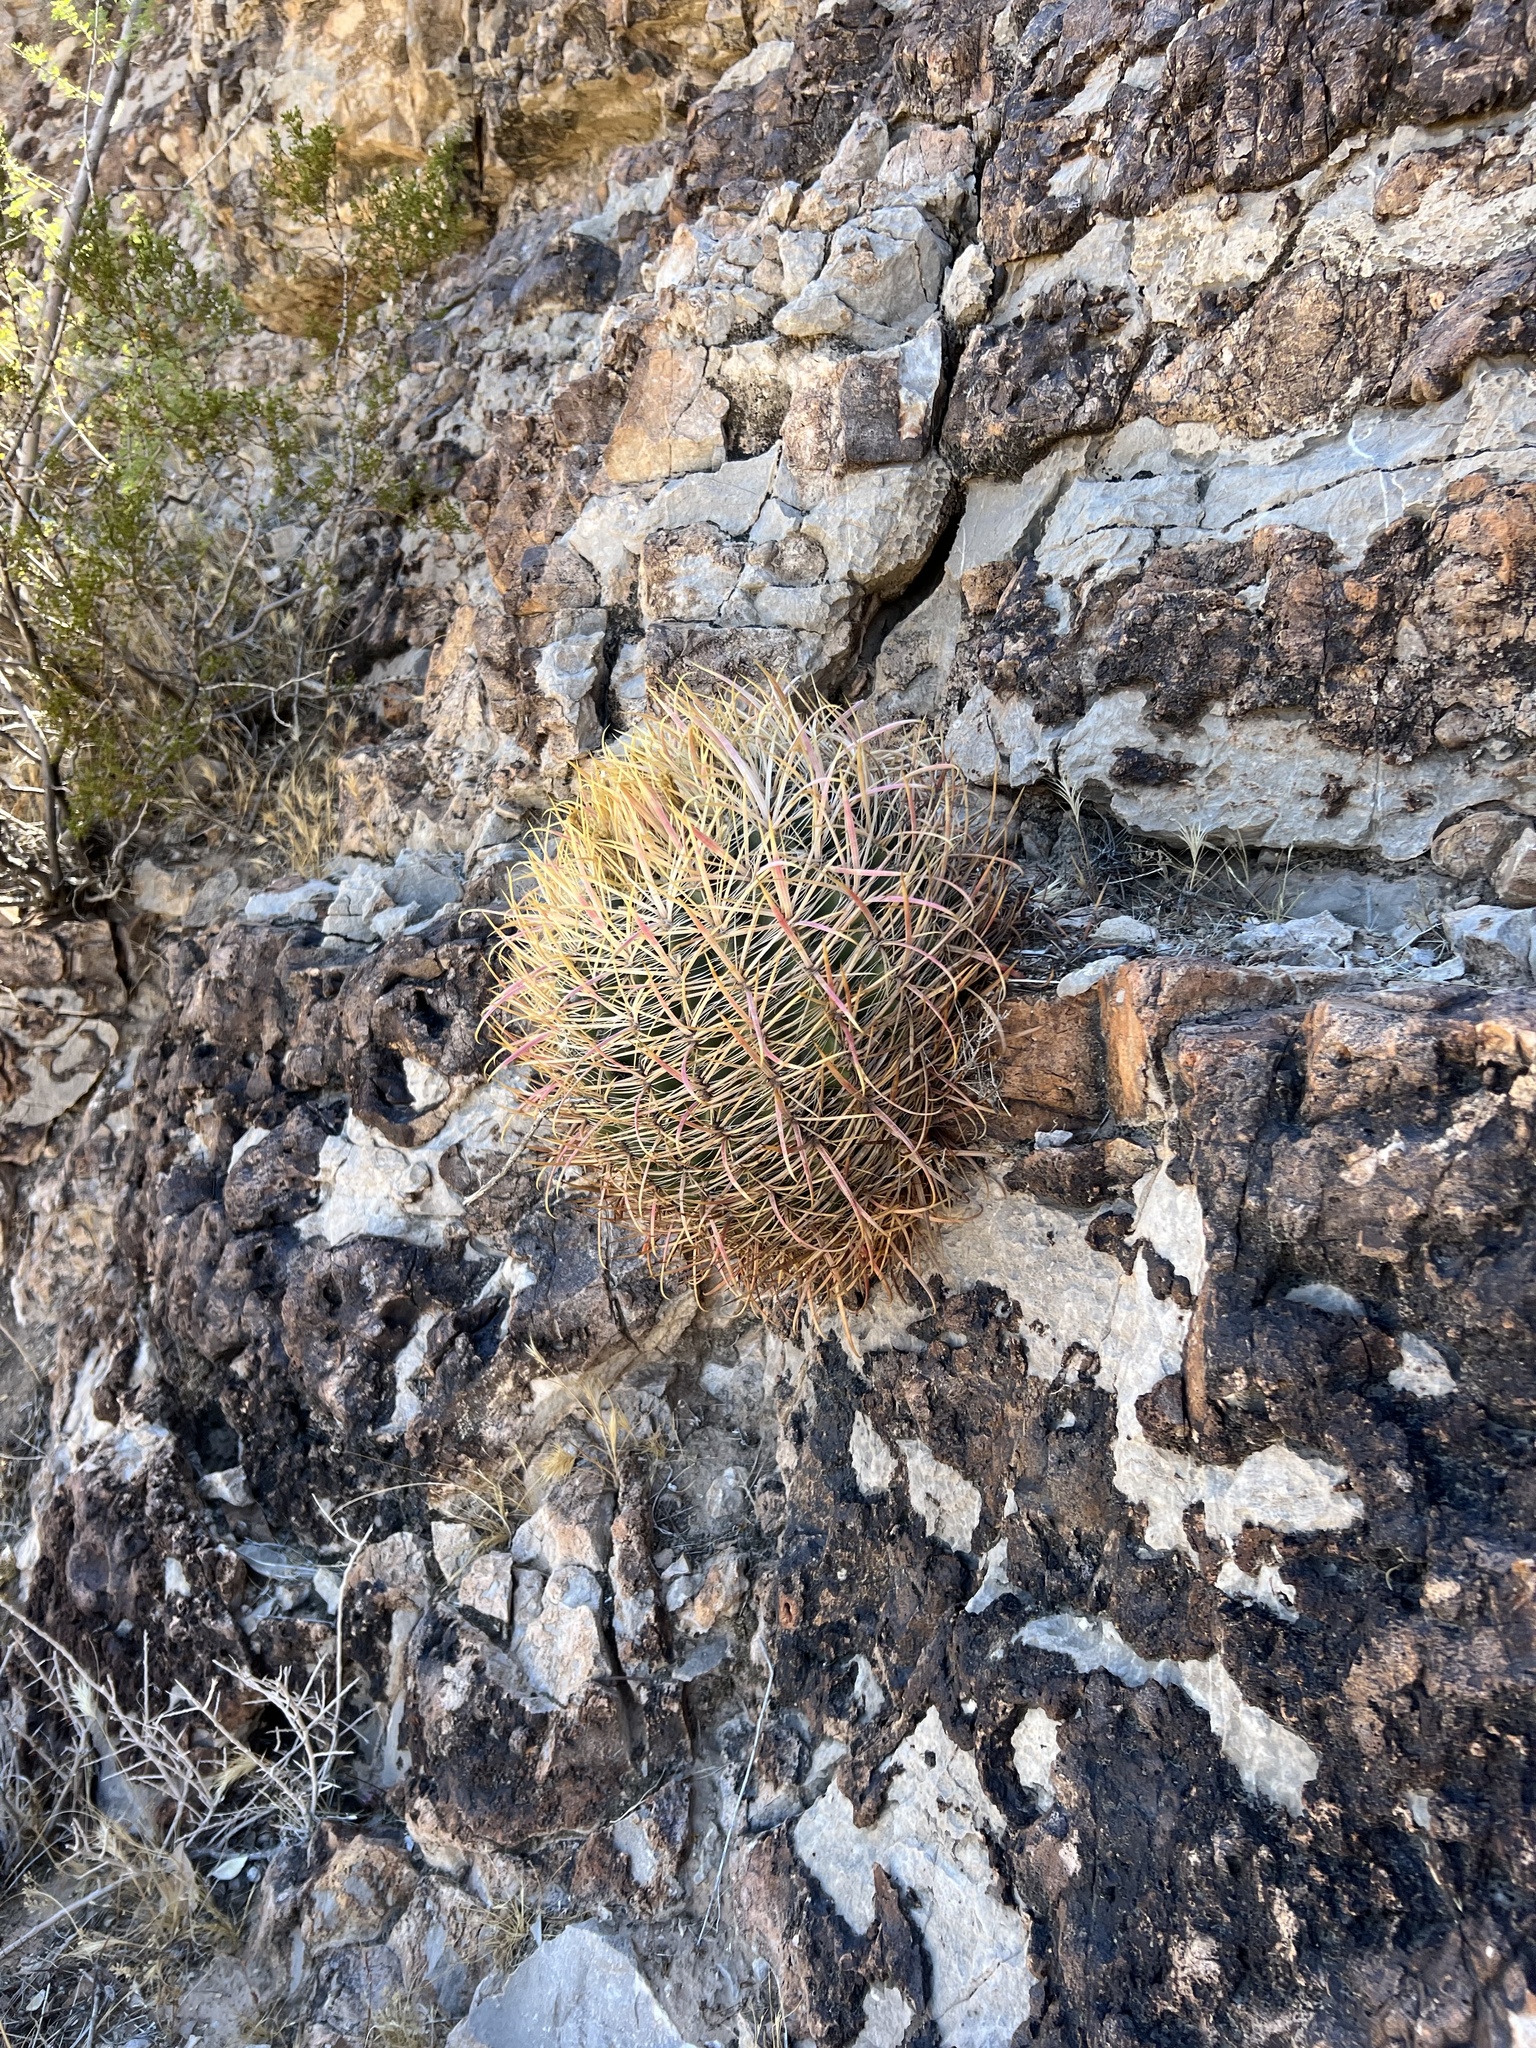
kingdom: Plantae
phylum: Tracheophyta
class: Magnoliopsida
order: Caryophyllales
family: Cactaceae
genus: Ferocactus
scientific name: Ferocactus cylindraceus
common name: California barrel cactus
